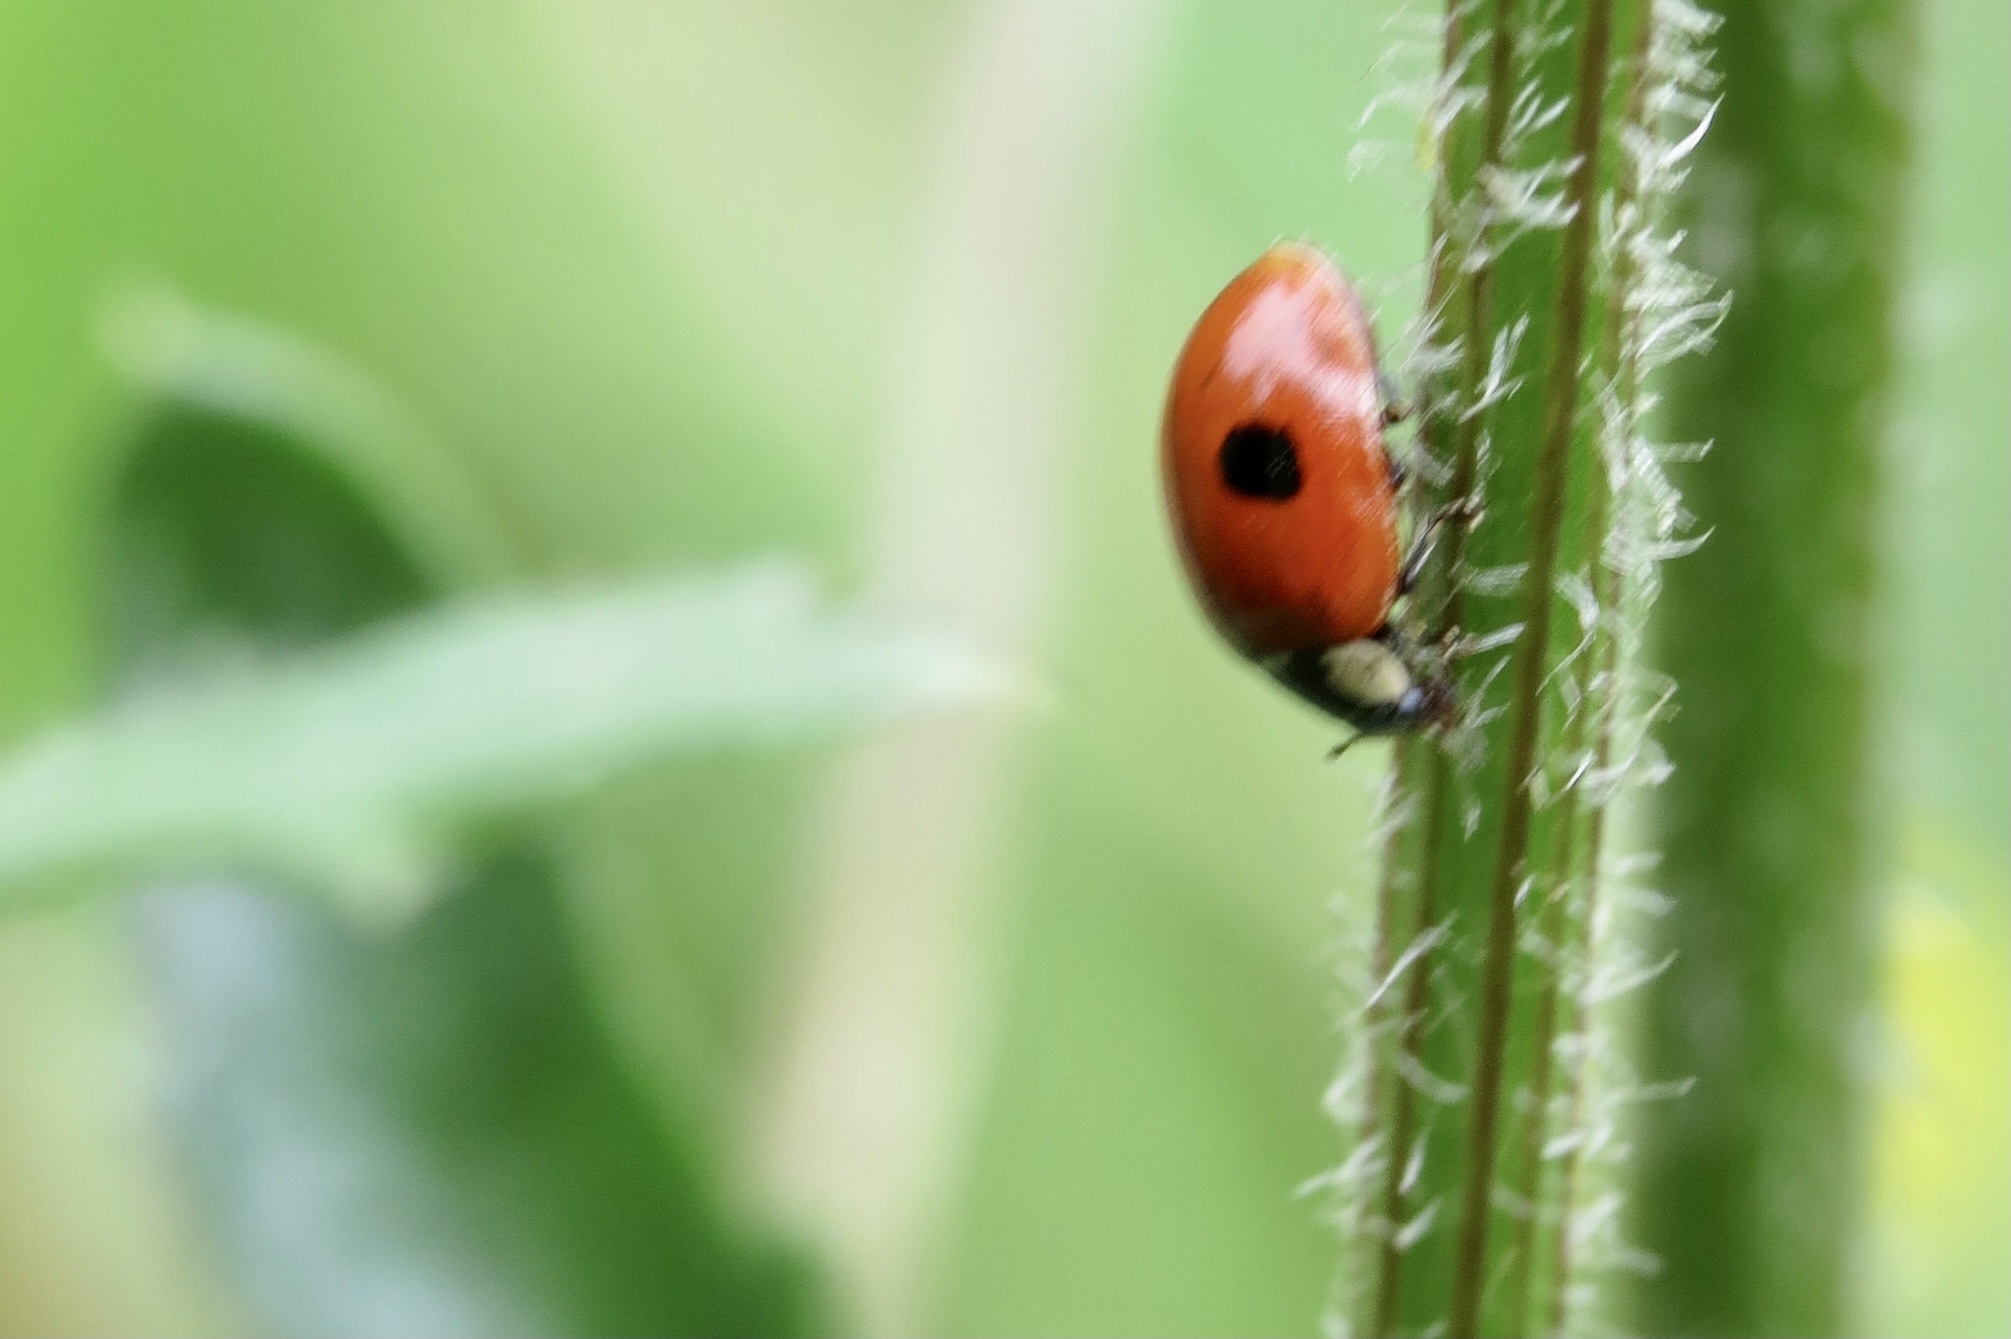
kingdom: Animalia
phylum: Arthropoda
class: Insecta
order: Coleoptera
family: Coccinellidae
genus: Adalia
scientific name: Adalia bipunctata
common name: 2-spot ladybird
